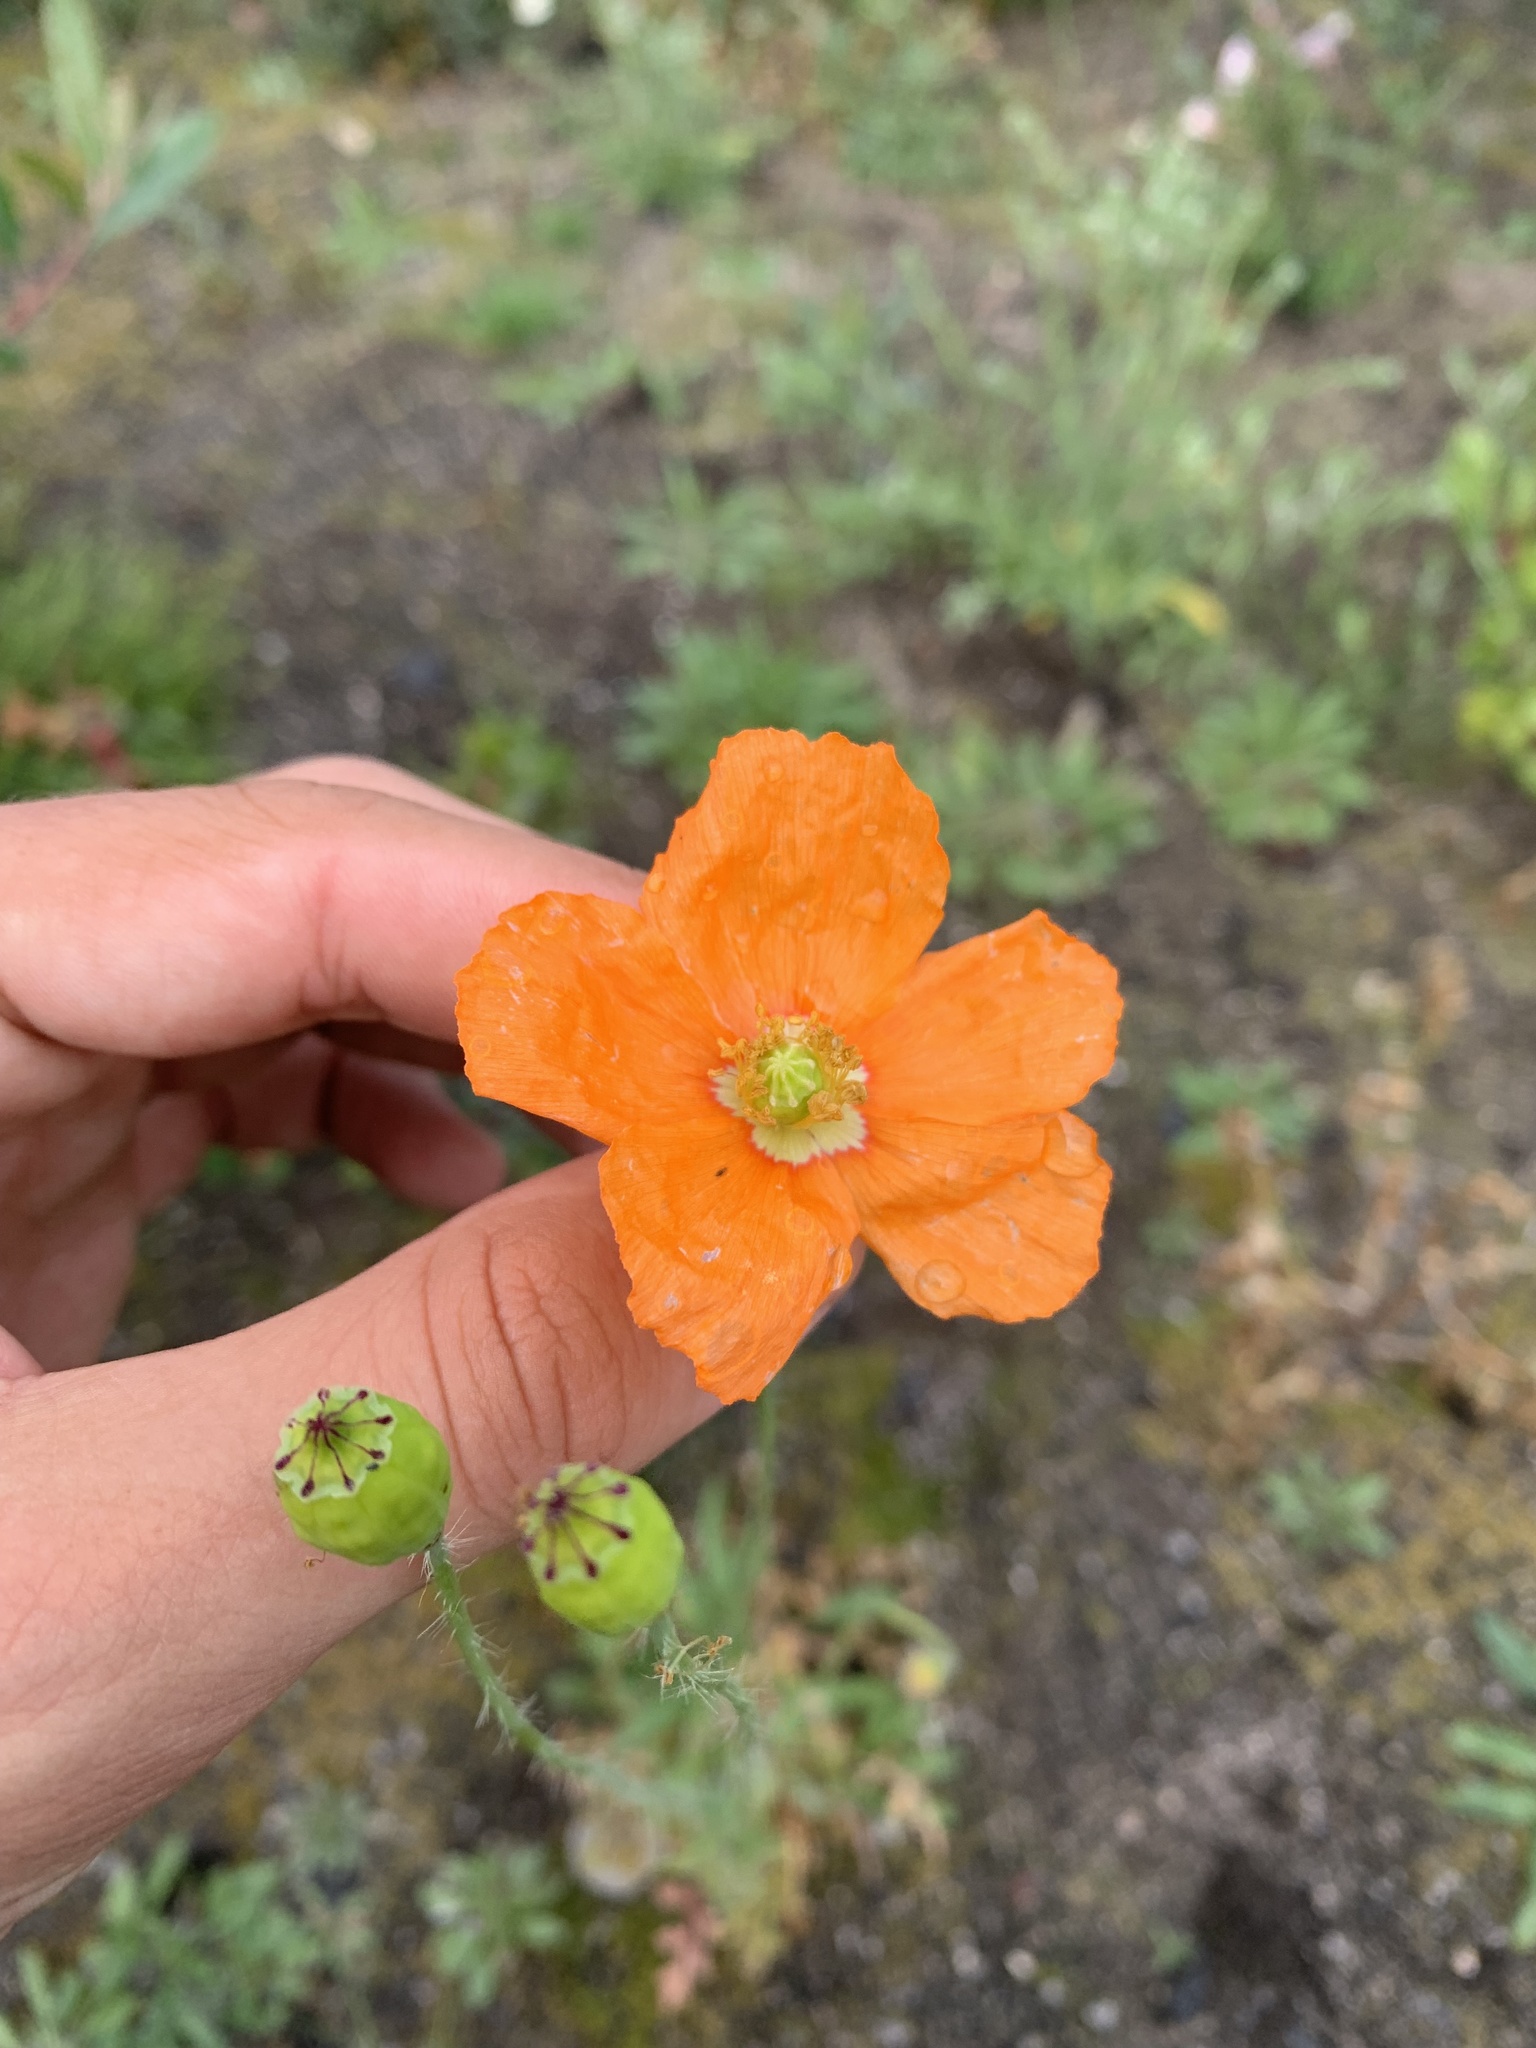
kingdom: Plantae
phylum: Tracheophyta
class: Magnoliopsida
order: Ranunculales
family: Papaveraceae
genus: Papaver
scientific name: Papaver californicum
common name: Fire poppy
